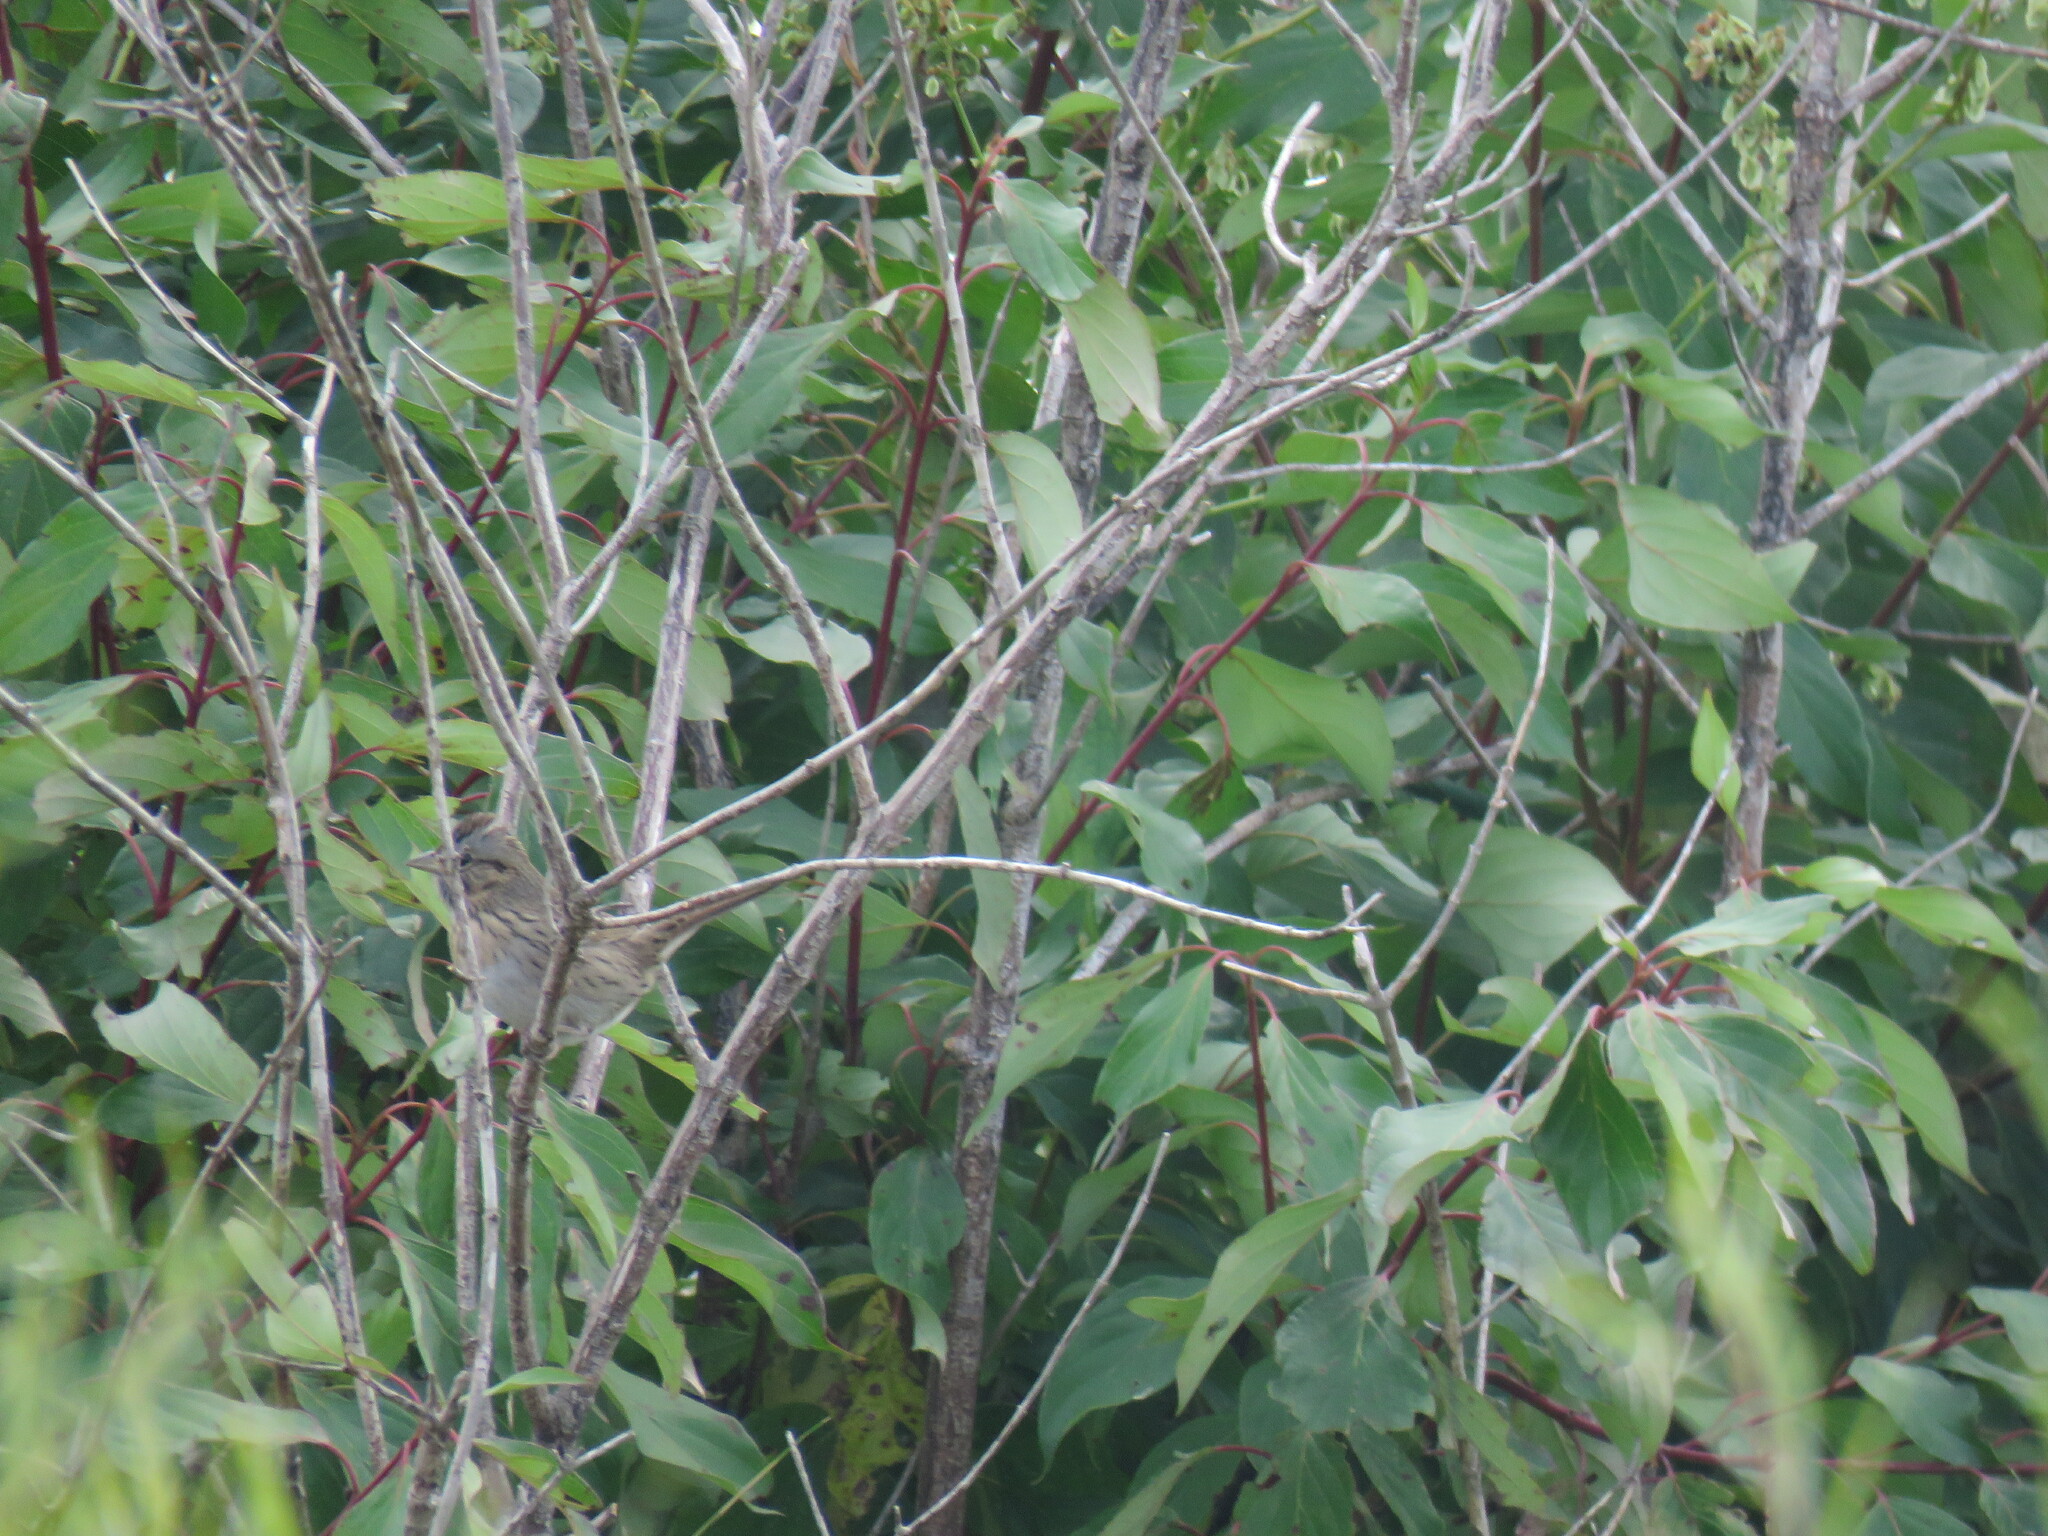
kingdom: Animalia
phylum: Chordata
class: Aves
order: Passeriformes
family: Passerellidae
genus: Melospiza
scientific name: Melospiza lincolnii
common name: Lincoln's sparrow
